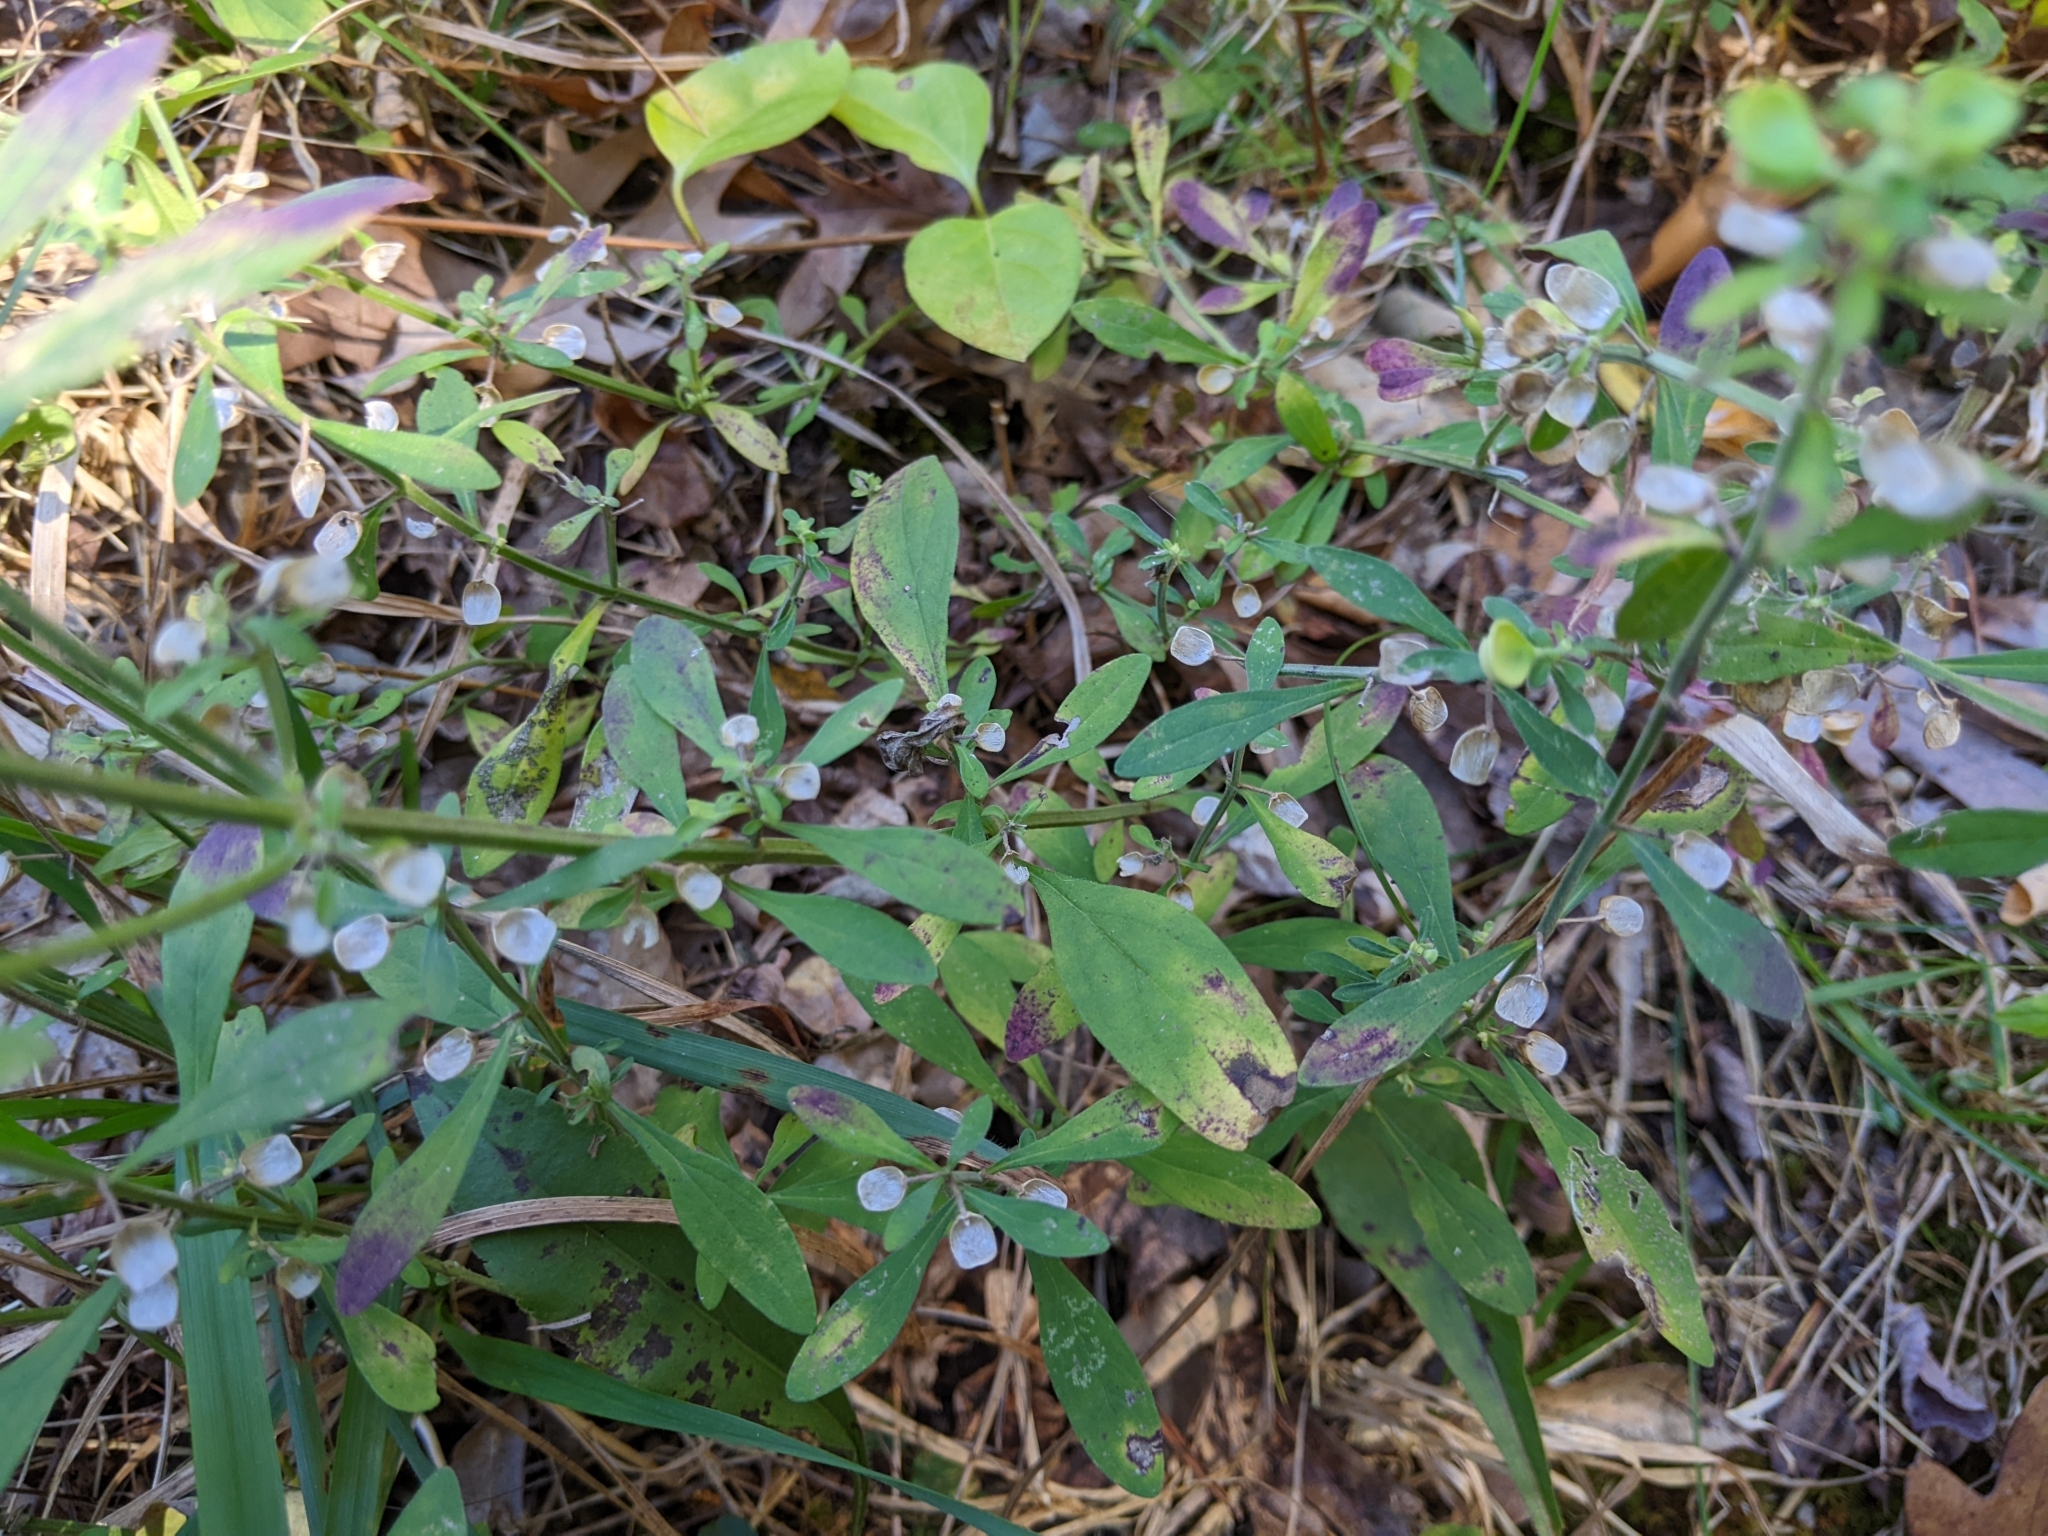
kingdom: Plantae
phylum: Tracheophyta
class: Magnoliopsida
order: Lamiales
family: Lamiaceae
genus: Scutellaria
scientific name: Scutellaria integrifolia
